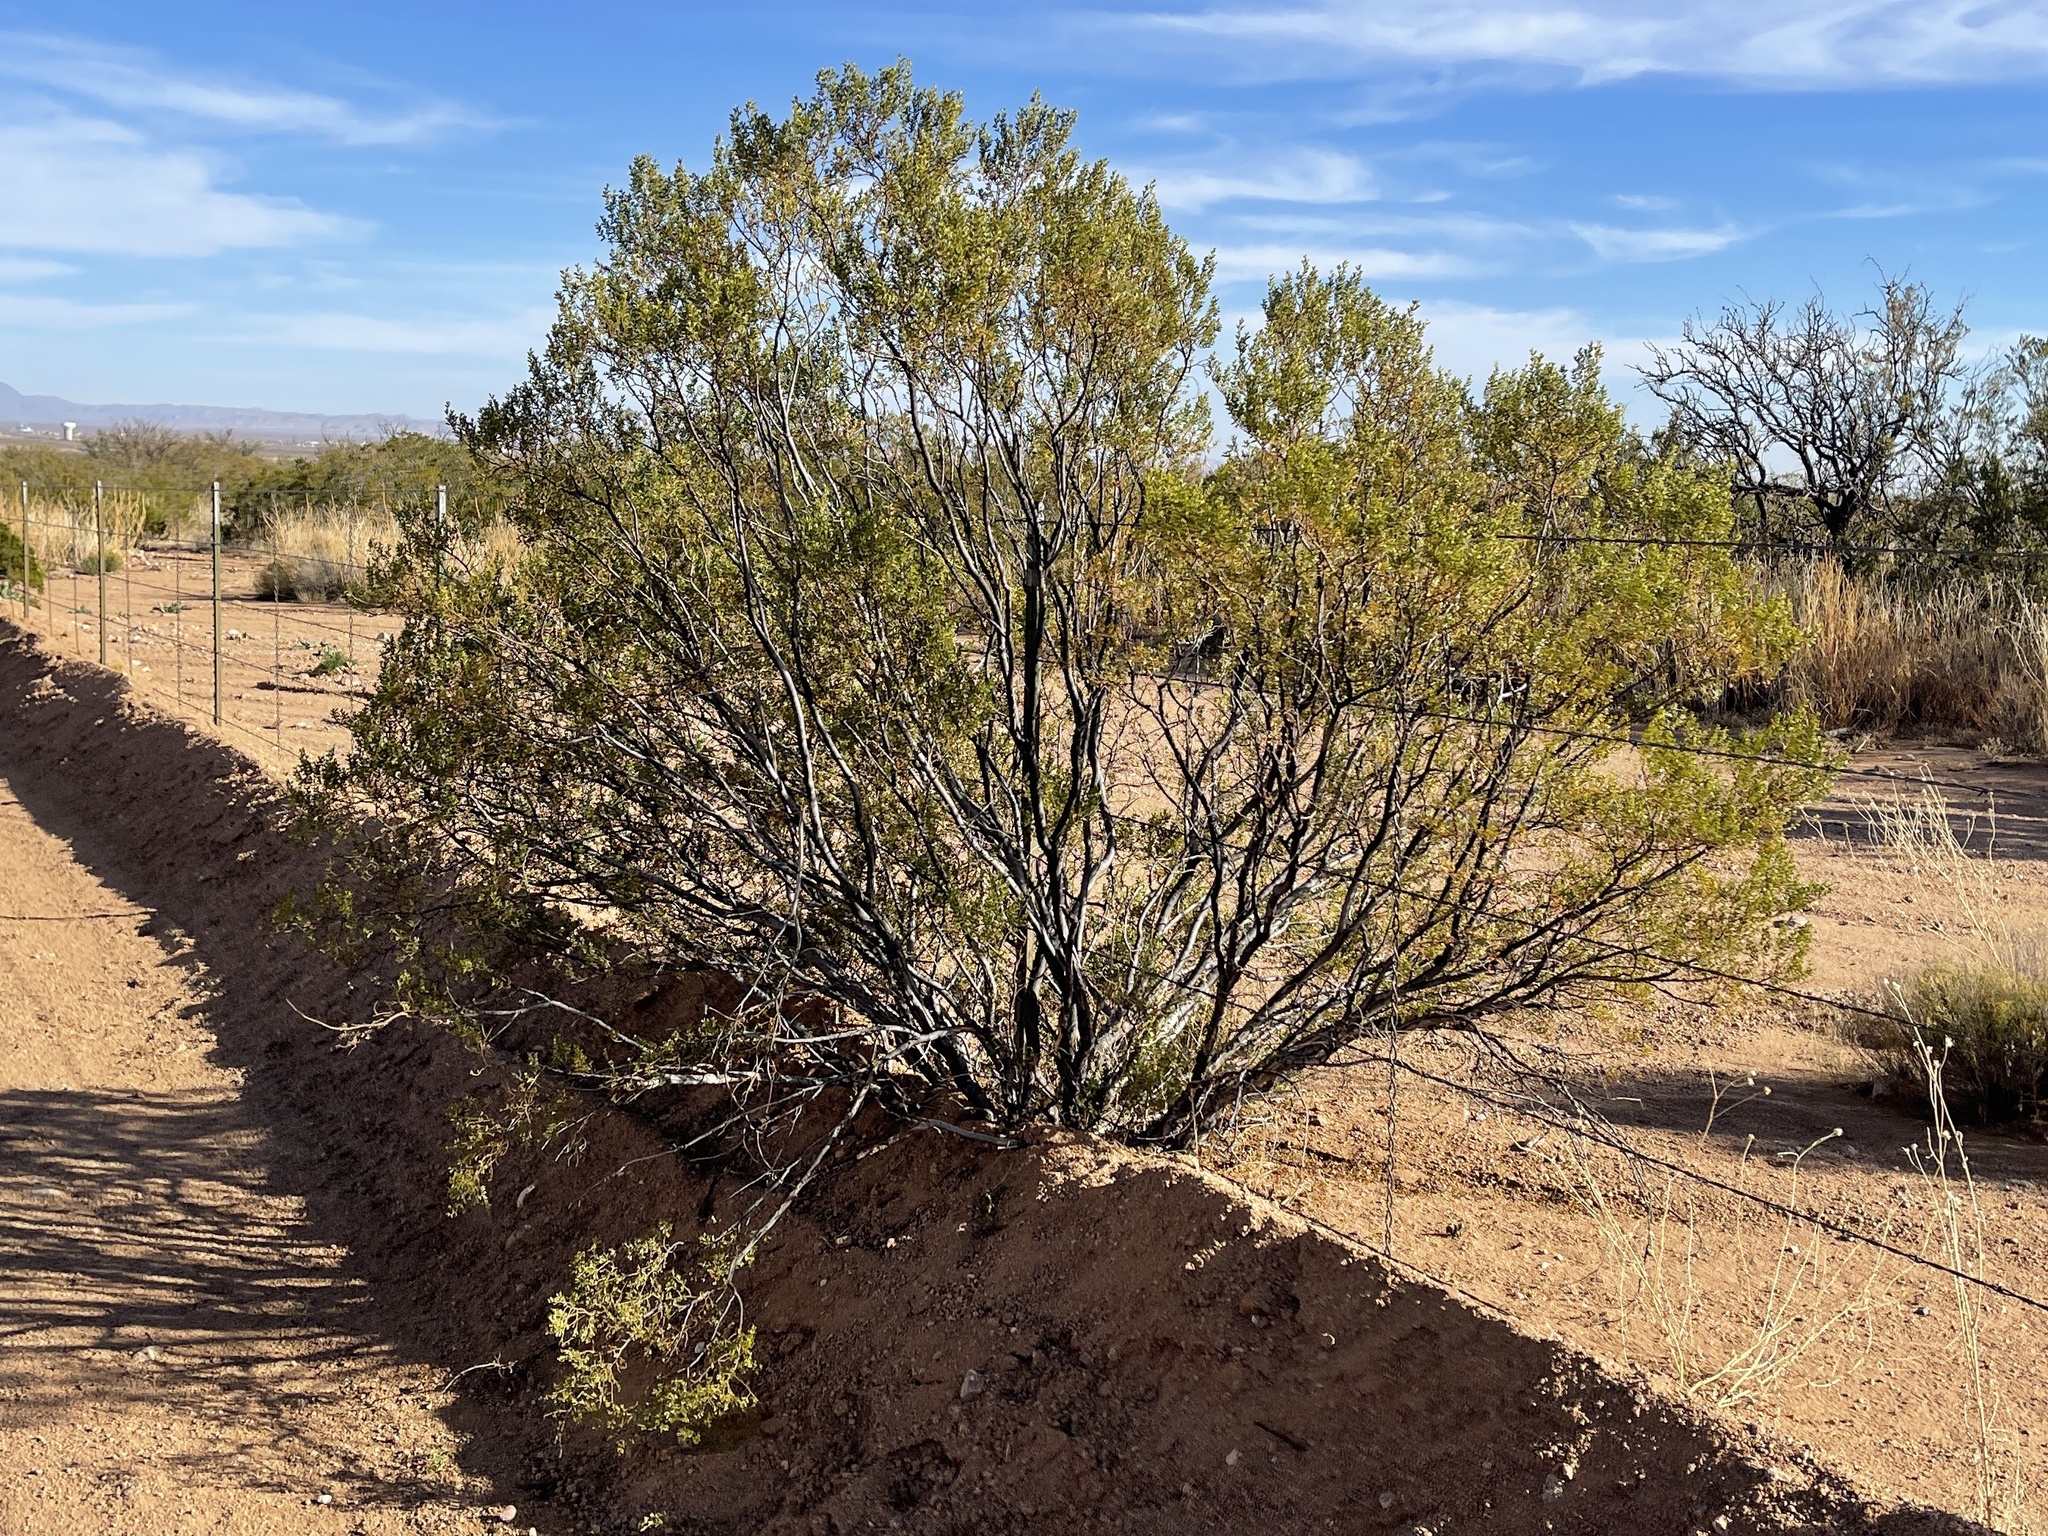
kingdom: Plantae
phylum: Tracheophyta
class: Magnoliopsida
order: Zygophyllales
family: Zygophyllaceae
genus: Larrea
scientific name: Larrea tridentata
